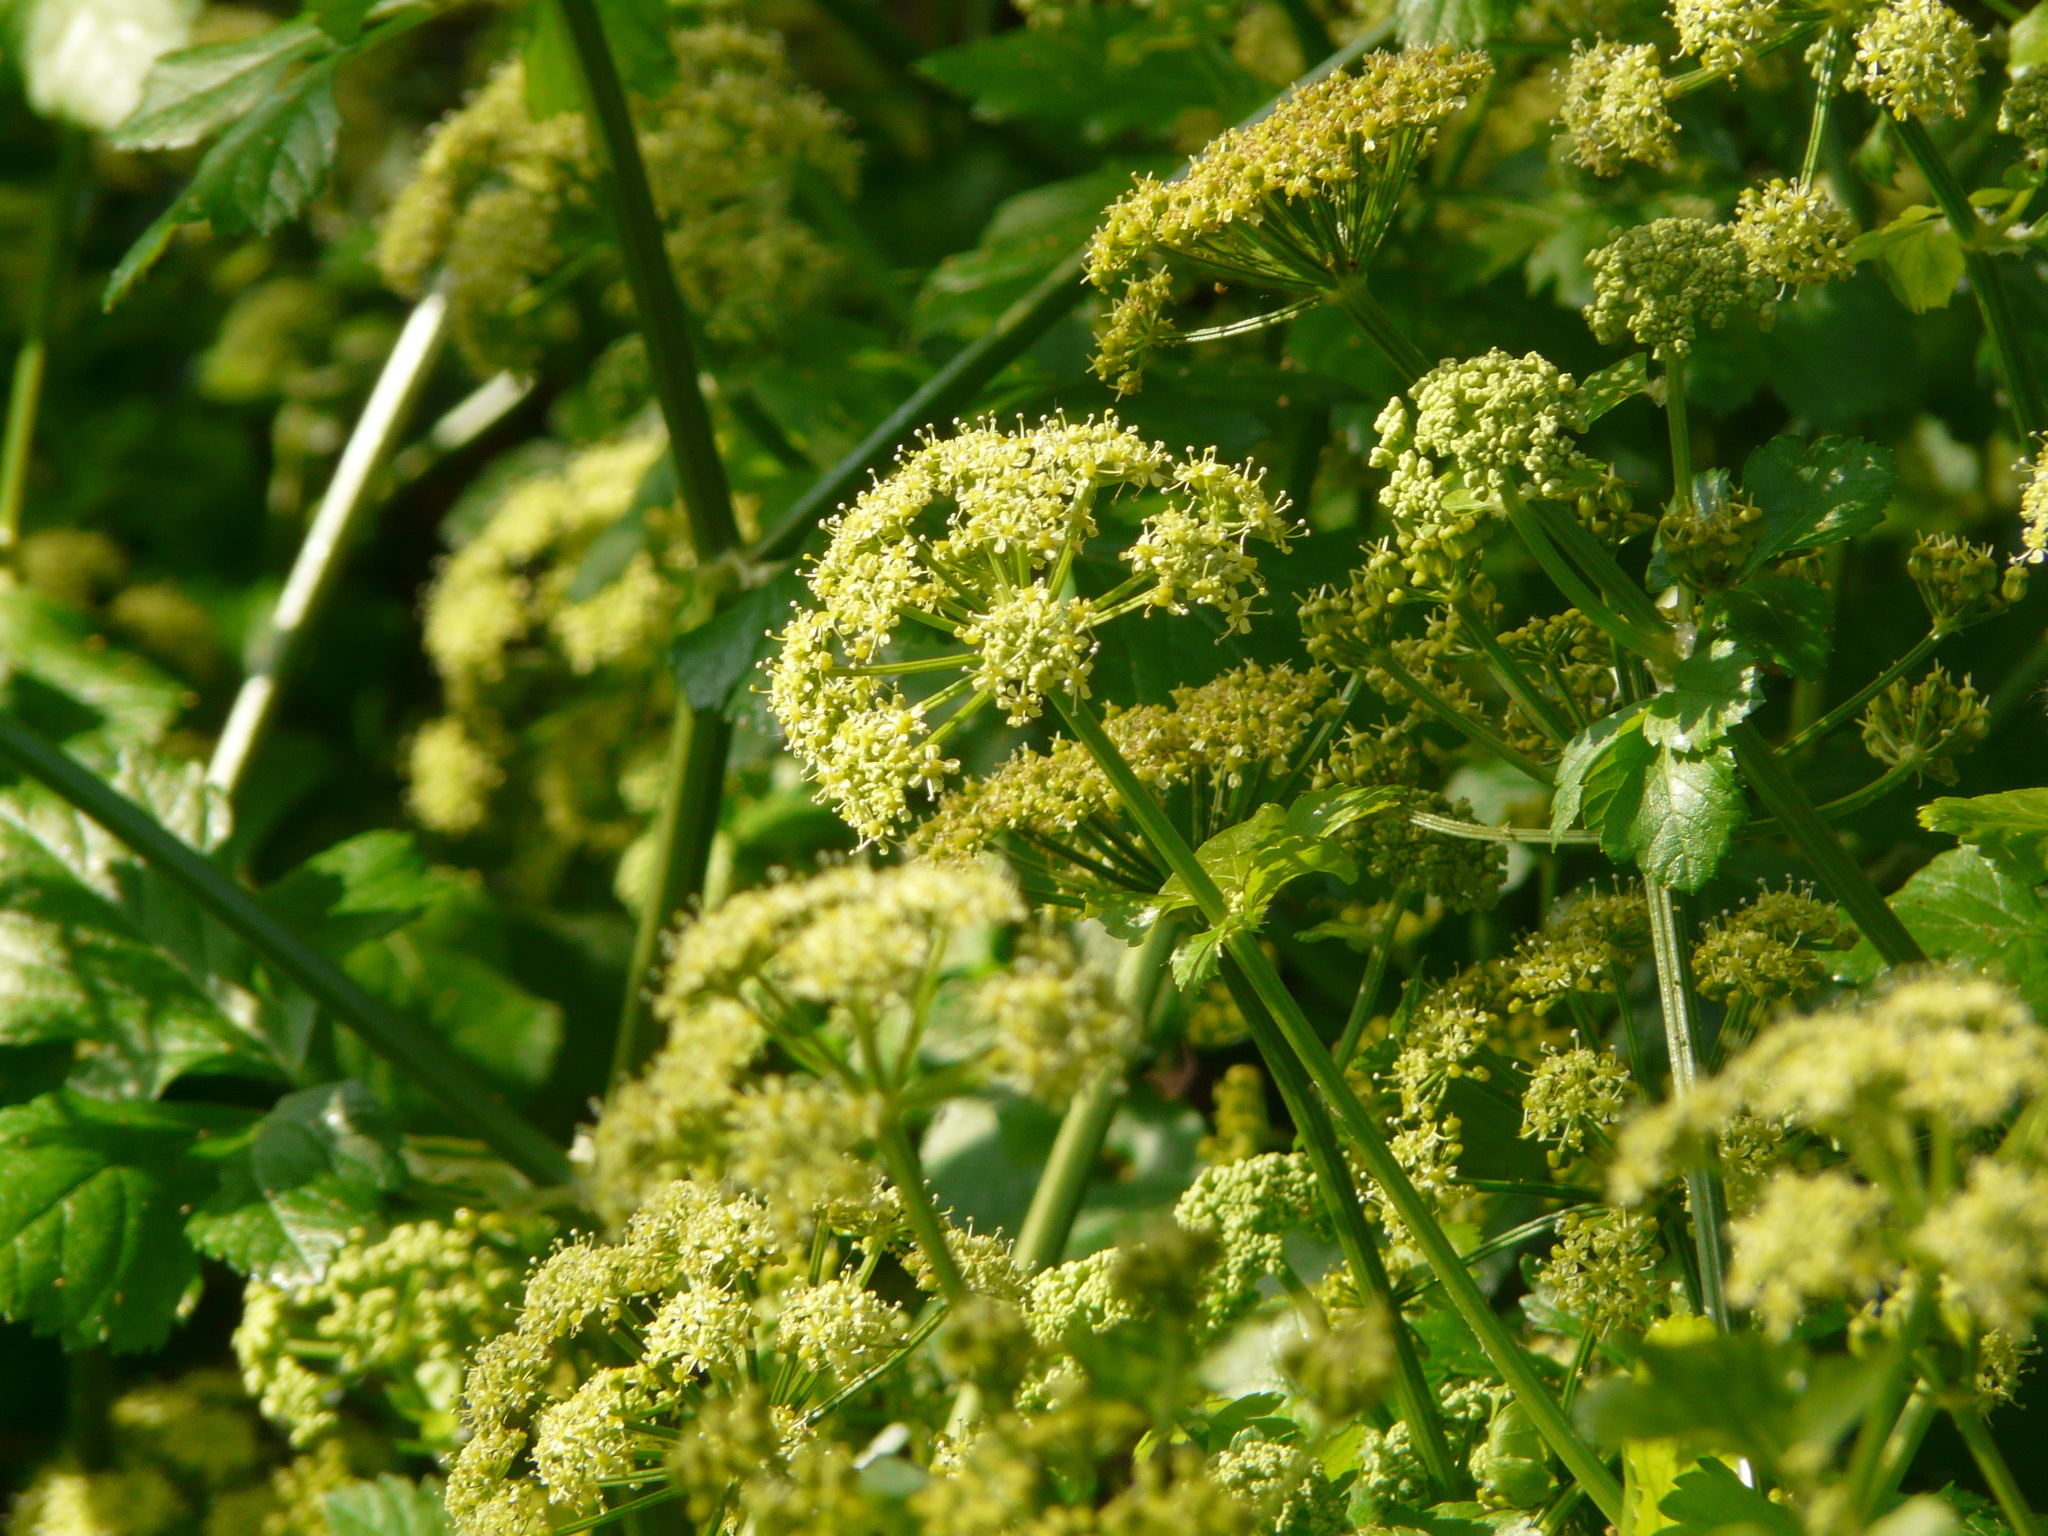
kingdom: Plantae
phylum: Tracheophyta
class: Magnoliopsida
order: Apiales
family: Apiaceae
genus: Smyrnium
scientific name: Smyrnium olusatrum
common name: Alexanders
